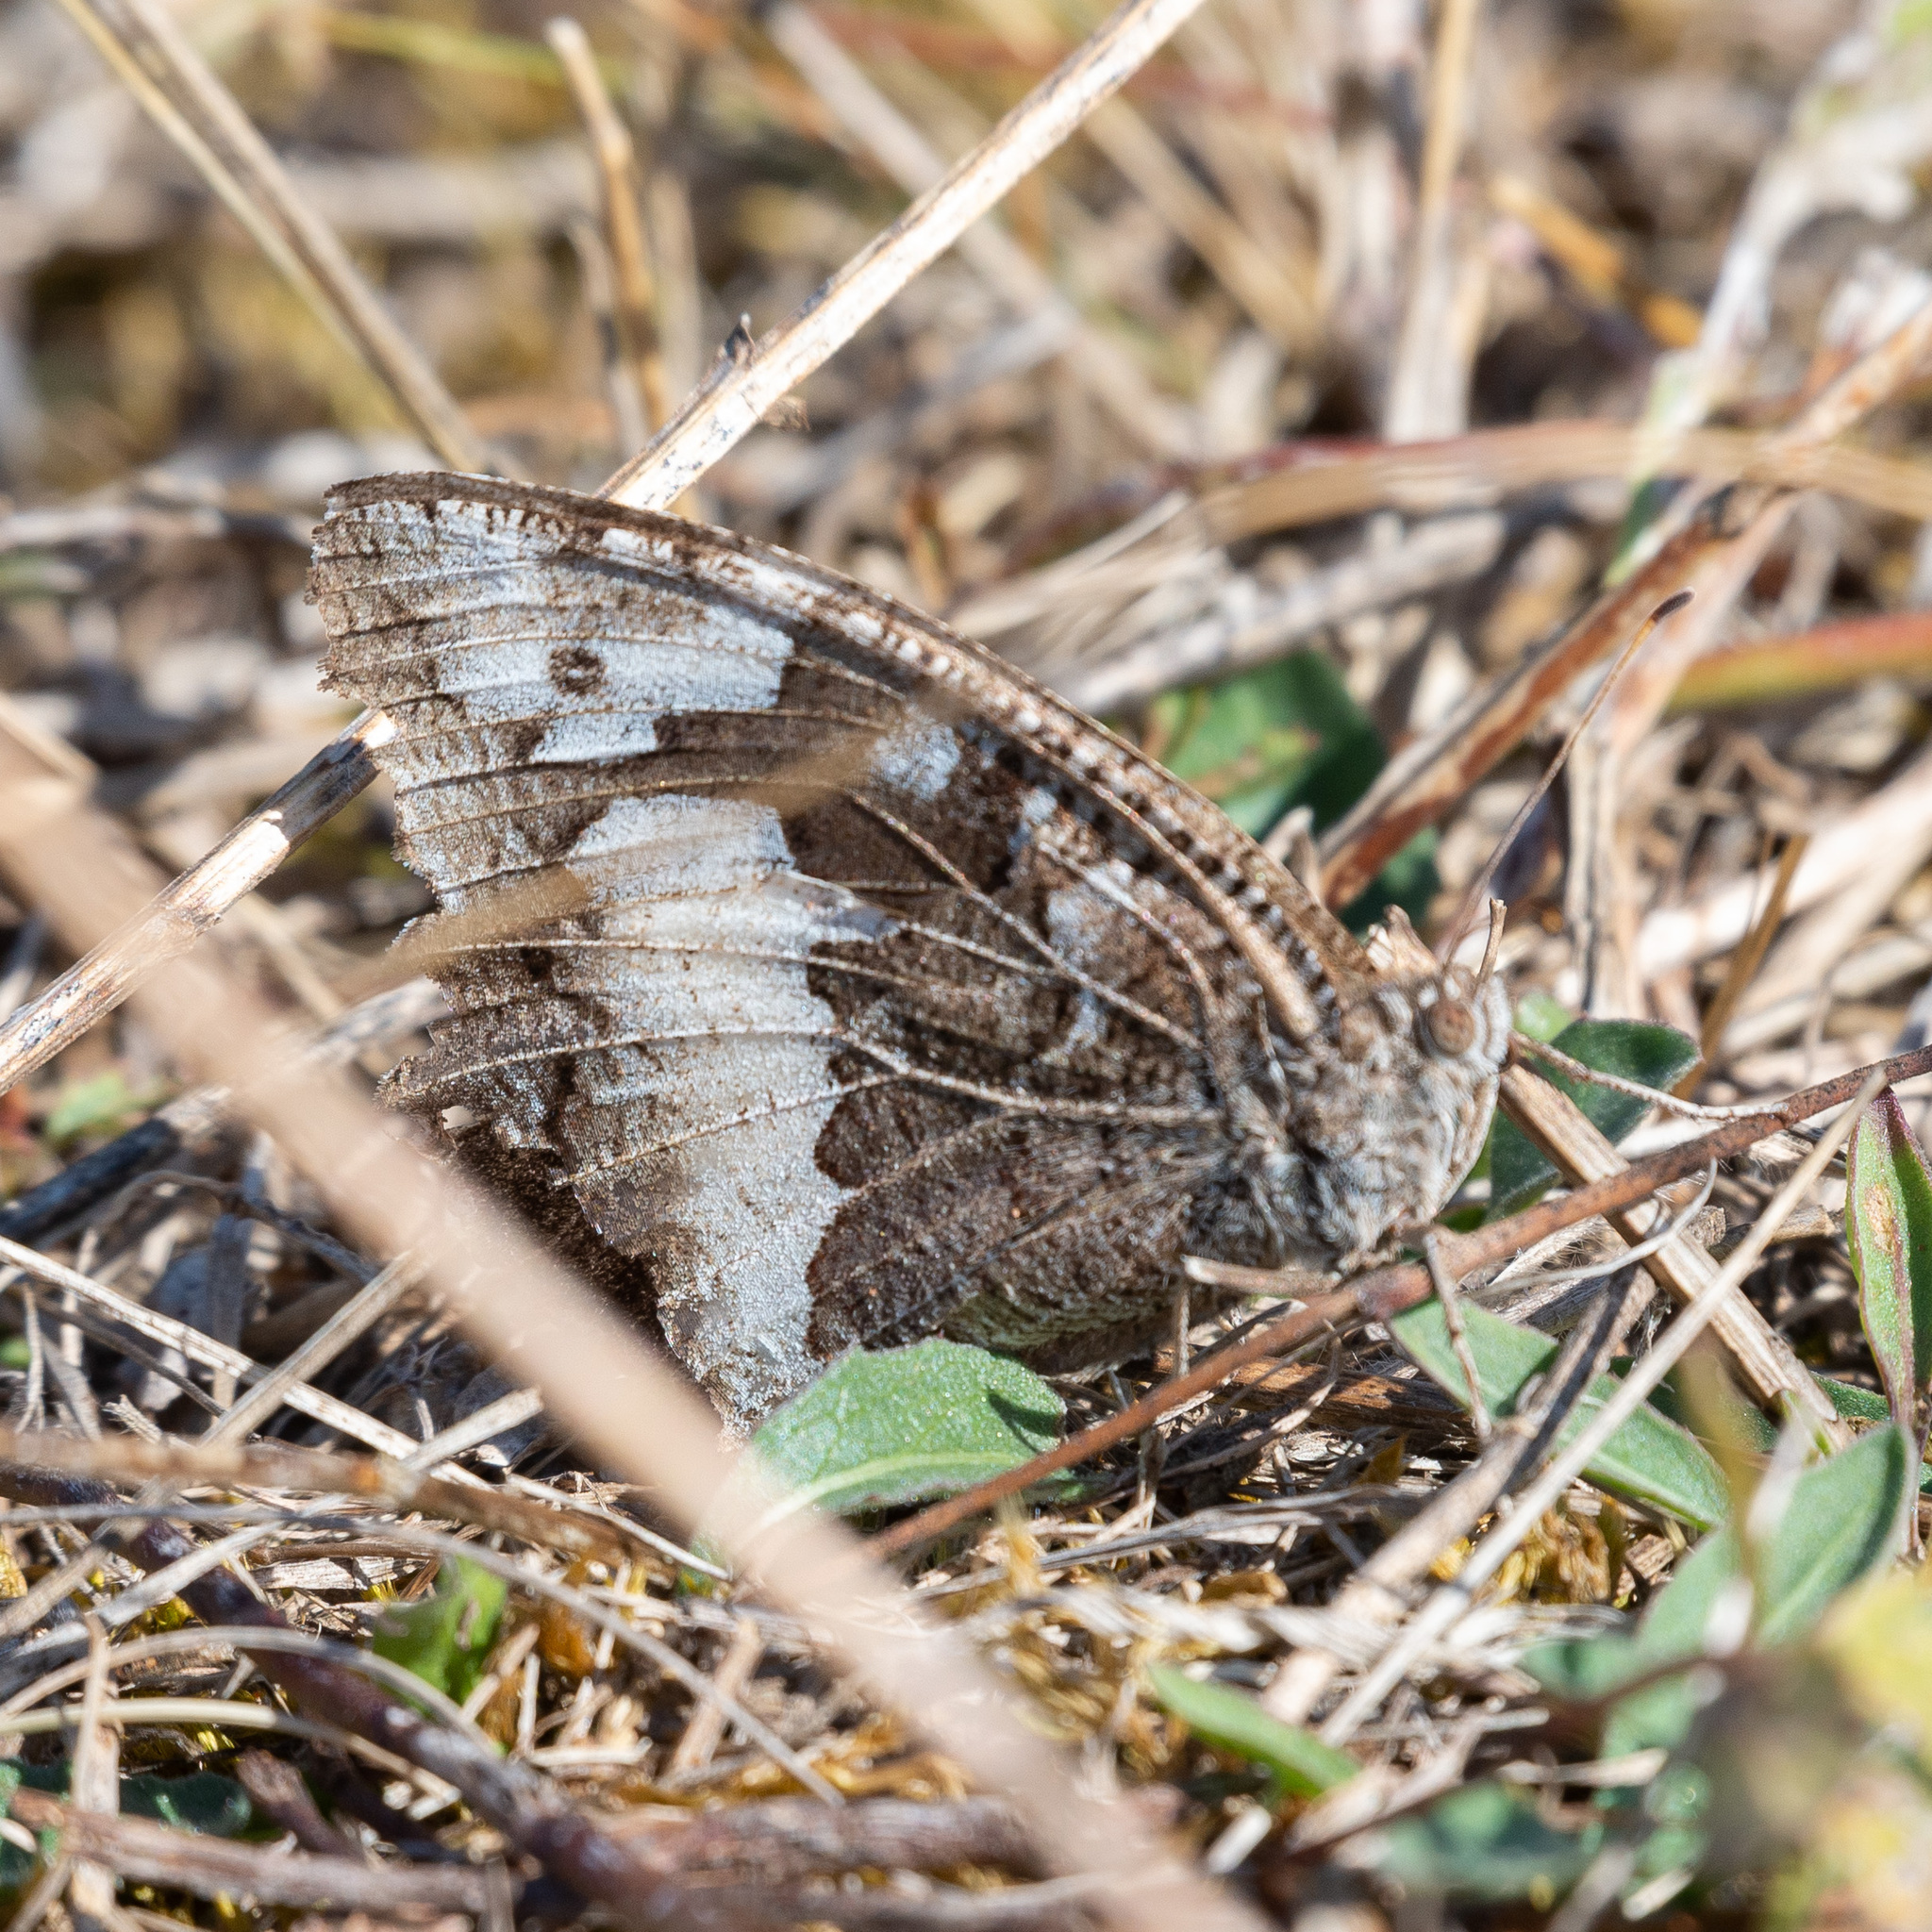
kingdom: Animalia
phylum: Arthropoda
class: Insecta
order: Lepidoptera
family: Lycaenidae
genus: Loweia
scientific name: Loweia tityrus
